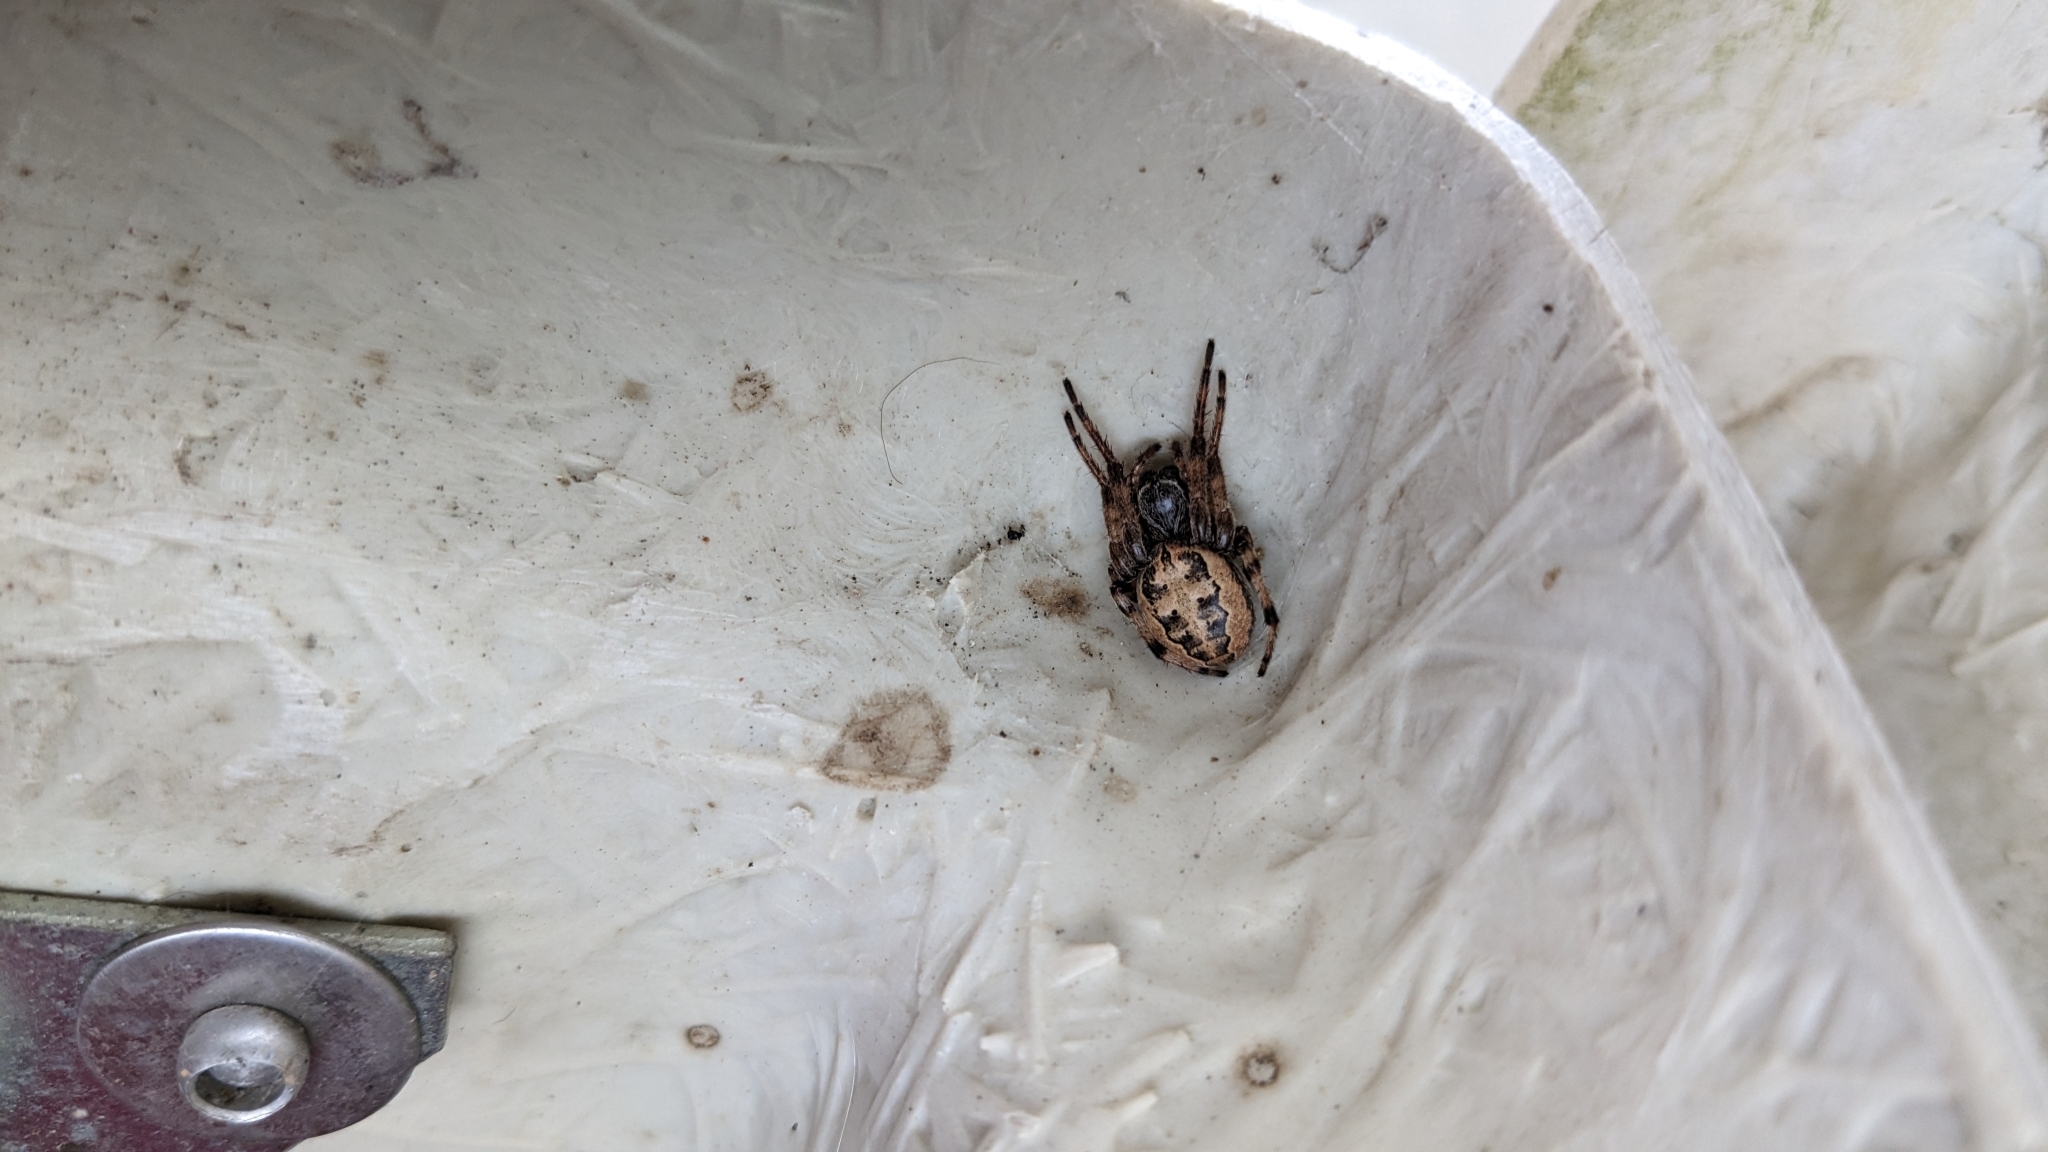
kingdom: Animalia
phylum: Arthropoda
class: Arachnida
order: Araneae
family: Araneidae
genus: Larinioides
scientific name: Larinioides cornutus
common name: Furrow orbweaver
